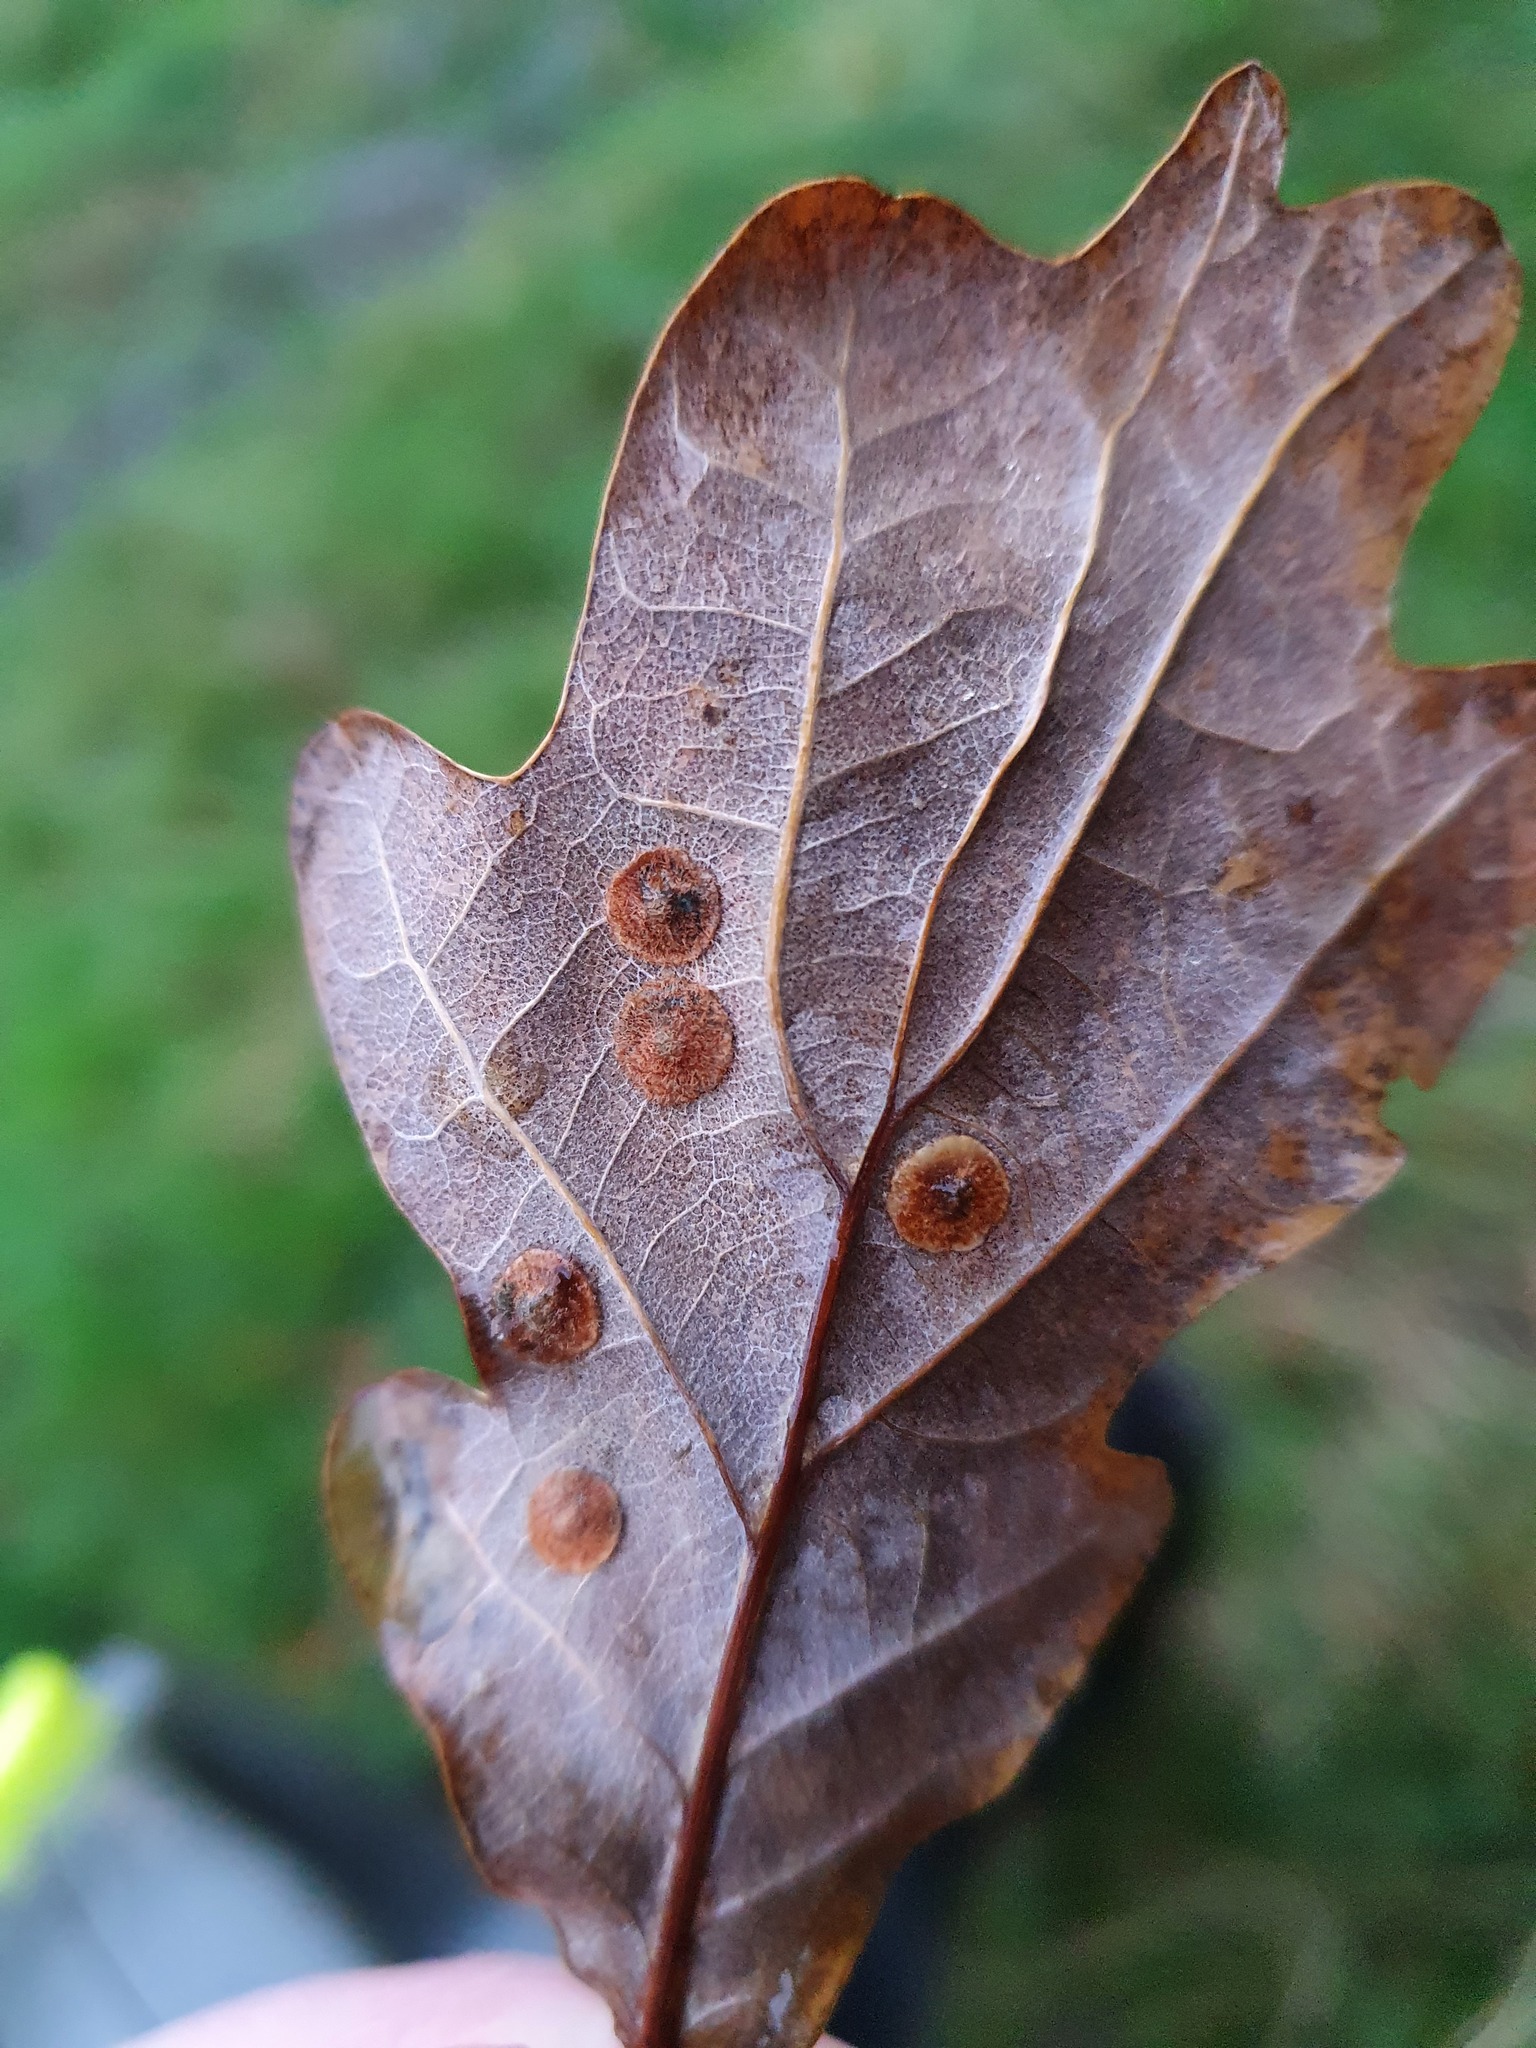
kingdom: Animalia
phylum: Arthropoda
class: Insecta
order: Hymenoptera
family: Cynipidae
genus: Neuroterus
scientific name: Neuroterus quercusbaccarum
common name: Common spangle gall
